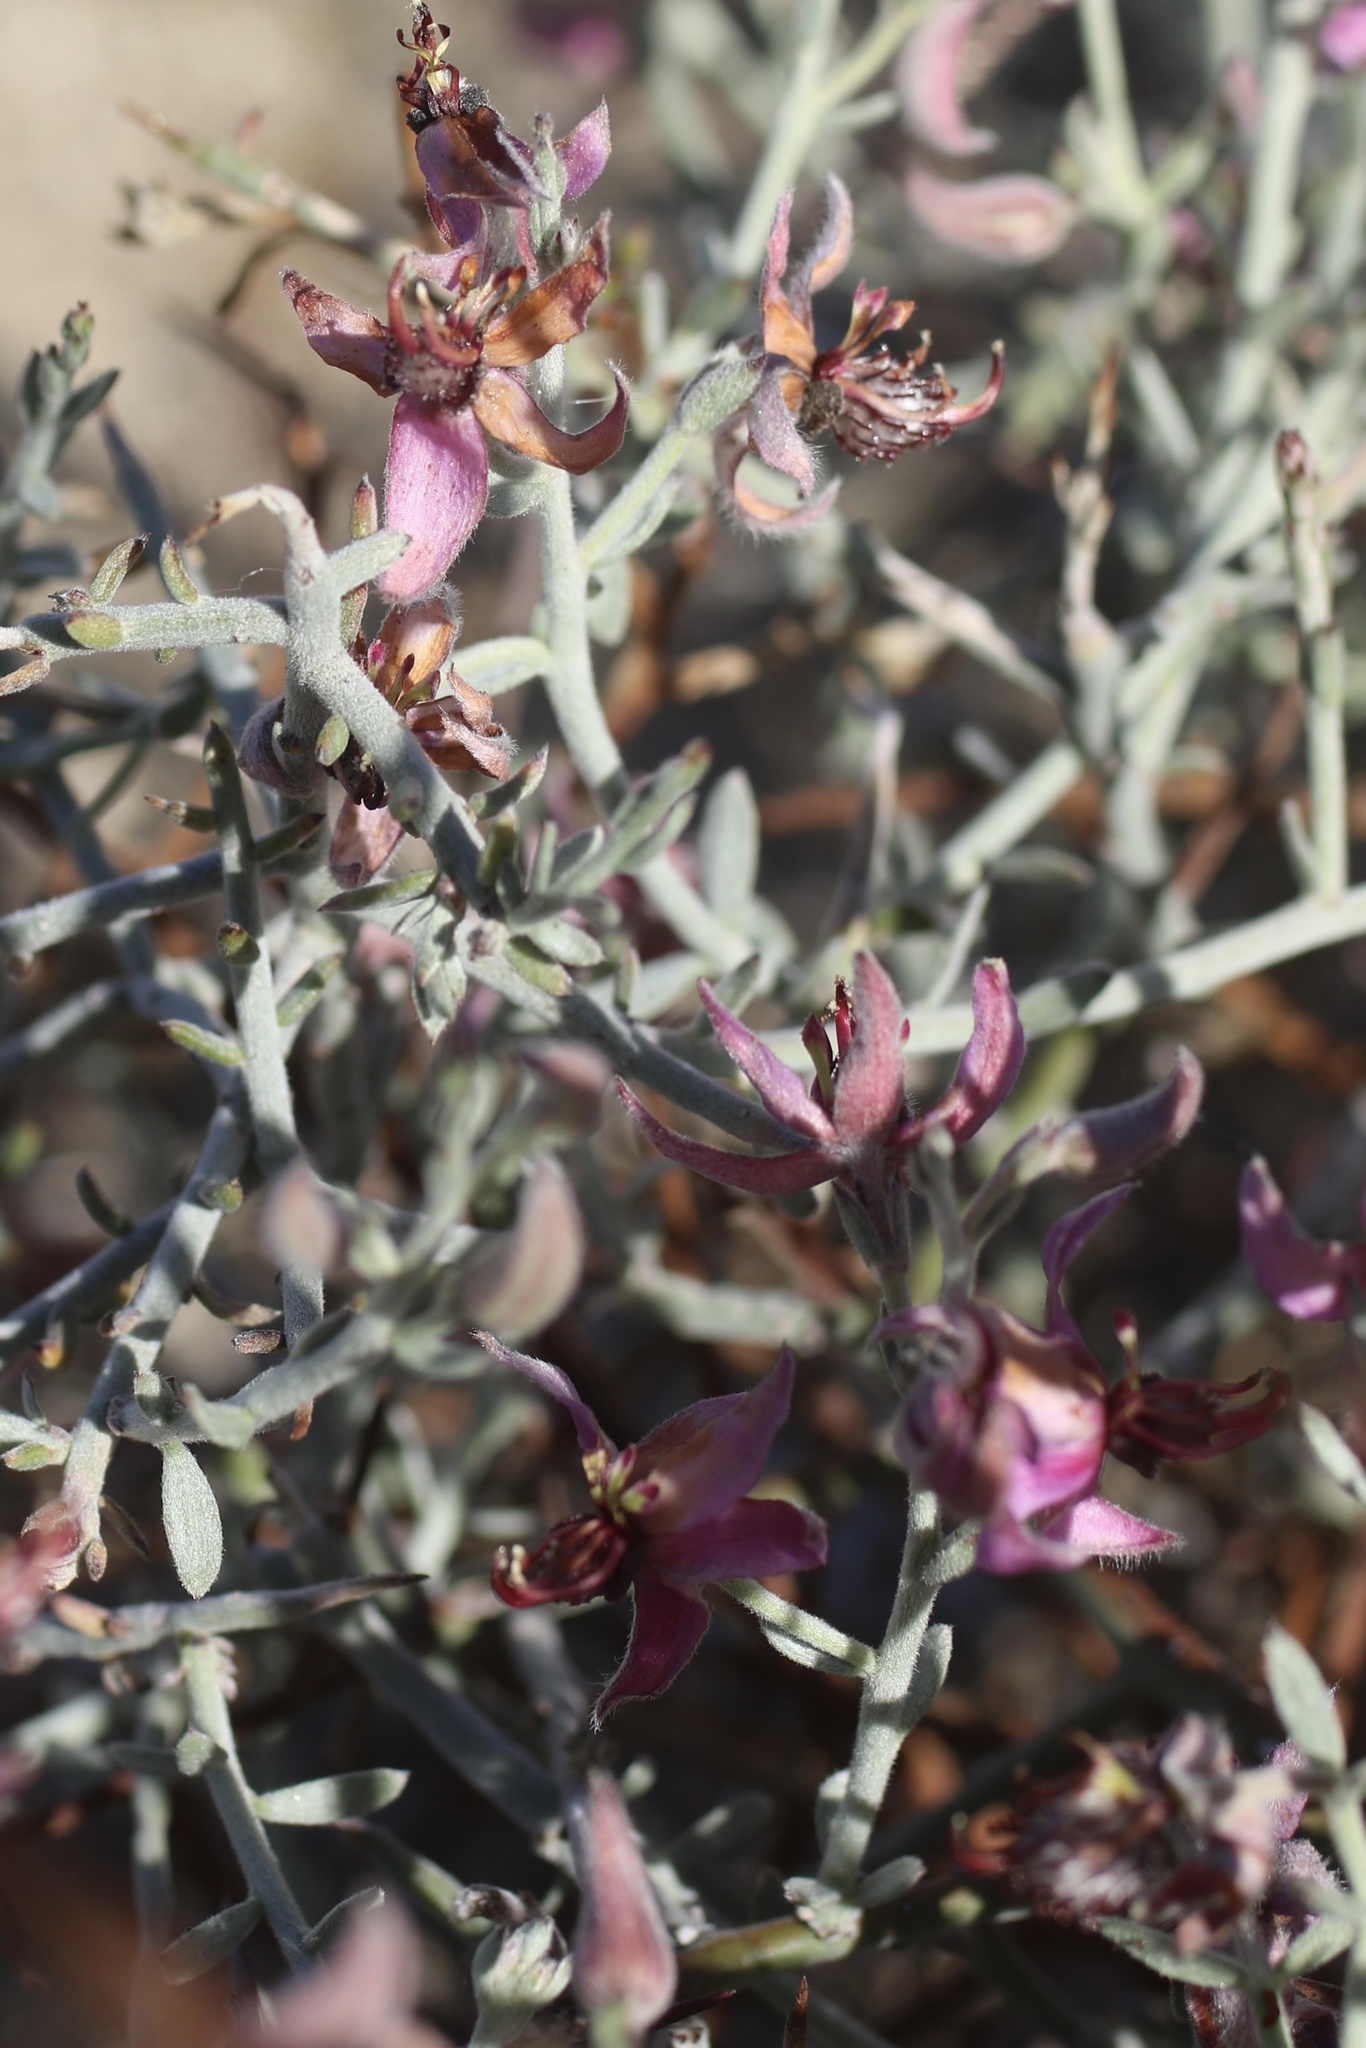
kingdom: Plantae
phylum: Tracheophyta
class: Magnoliopsida
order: Zygophyllales
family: Krameriaceae
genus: Krameria
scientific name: Krameria bicolor
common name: White ratany
